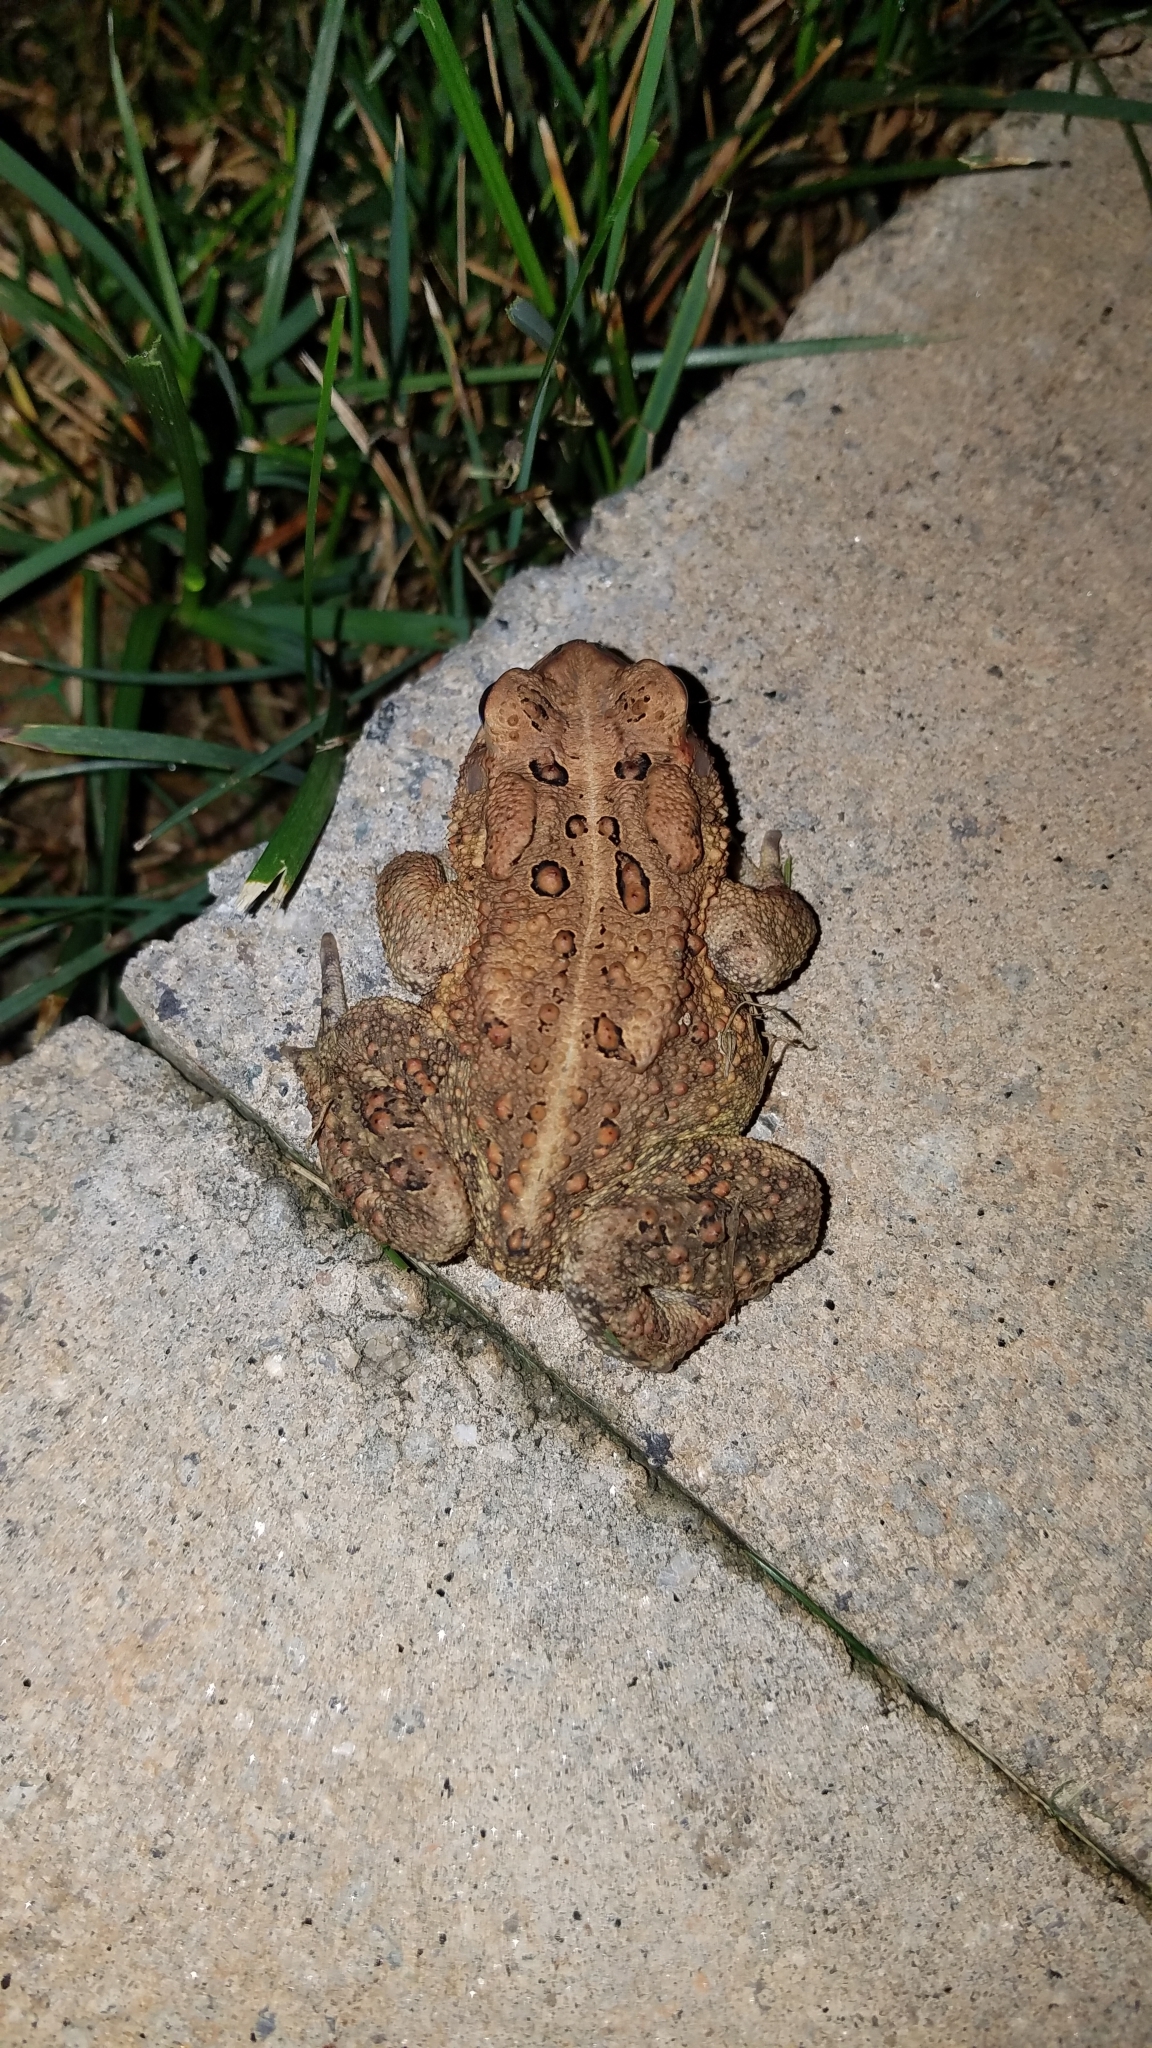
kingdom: Animalia
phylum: Chordata
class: Amphibia
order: Anura
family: Bufonidae
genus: Anaxyrus
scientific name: Anaxyrus americanus
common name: American toad
